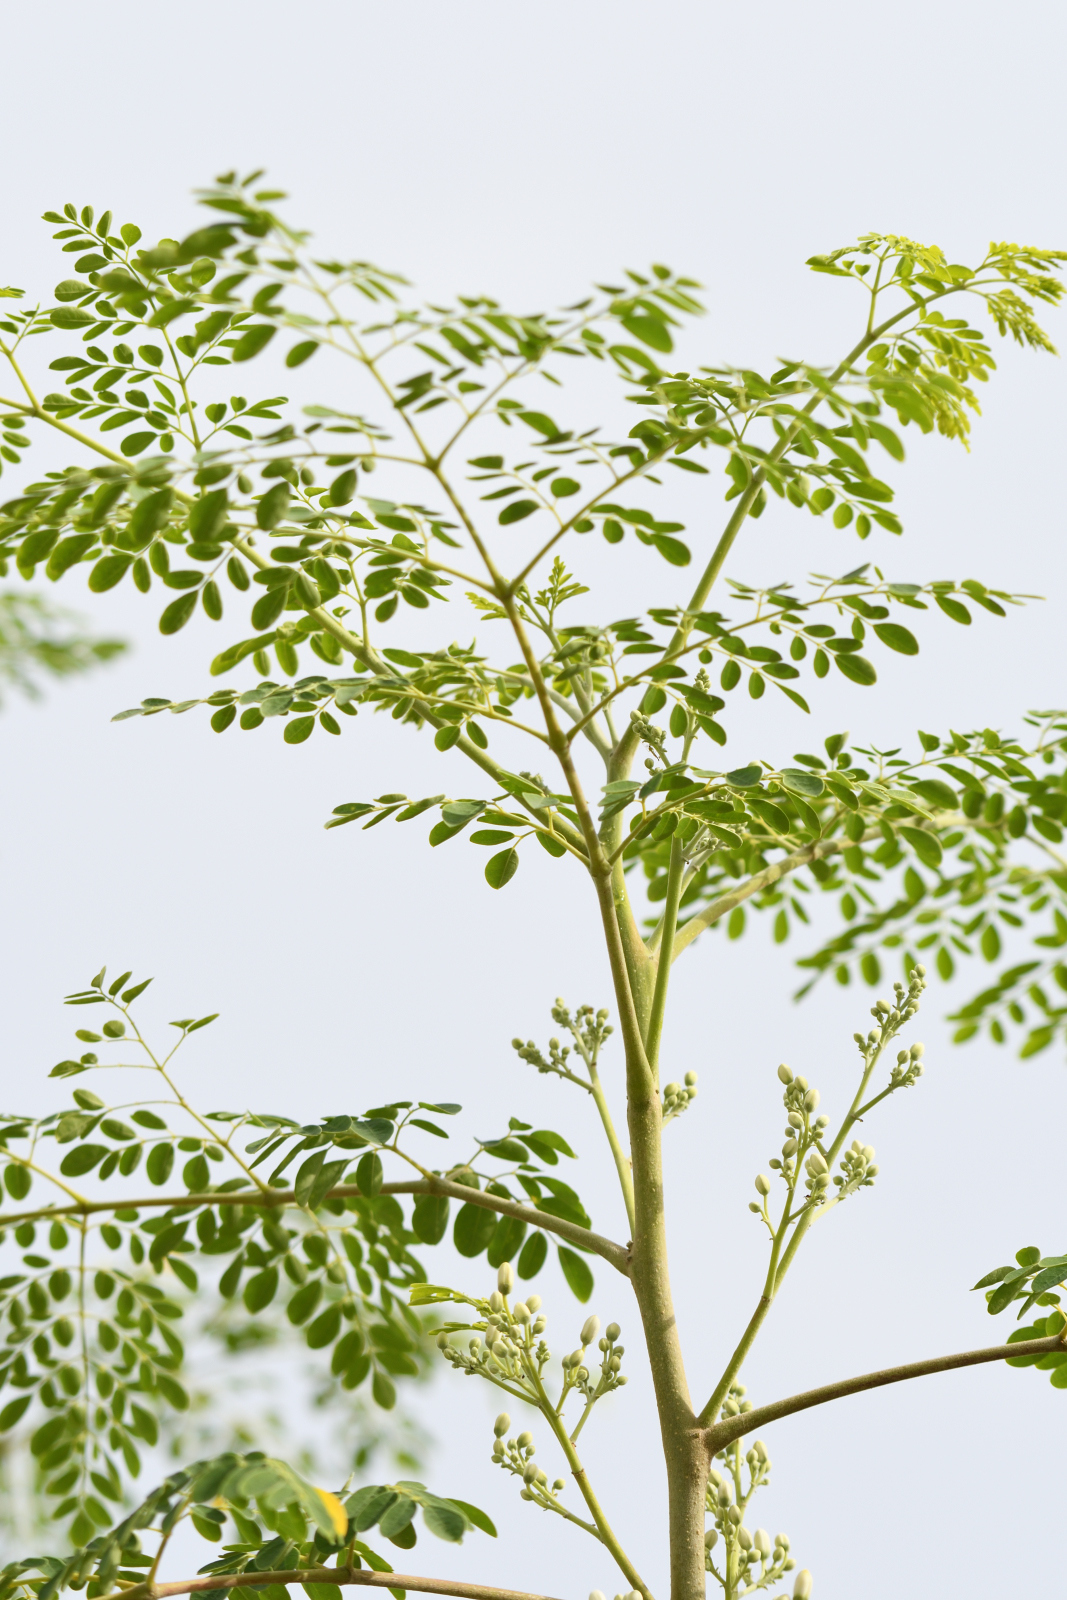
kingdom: Plantae
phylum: Tracheophyta
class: Magnoliopsida
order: Brassicales
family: Moringaceae
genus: Moringa
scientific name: Moringa oleifera
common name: Horseradish-tree
